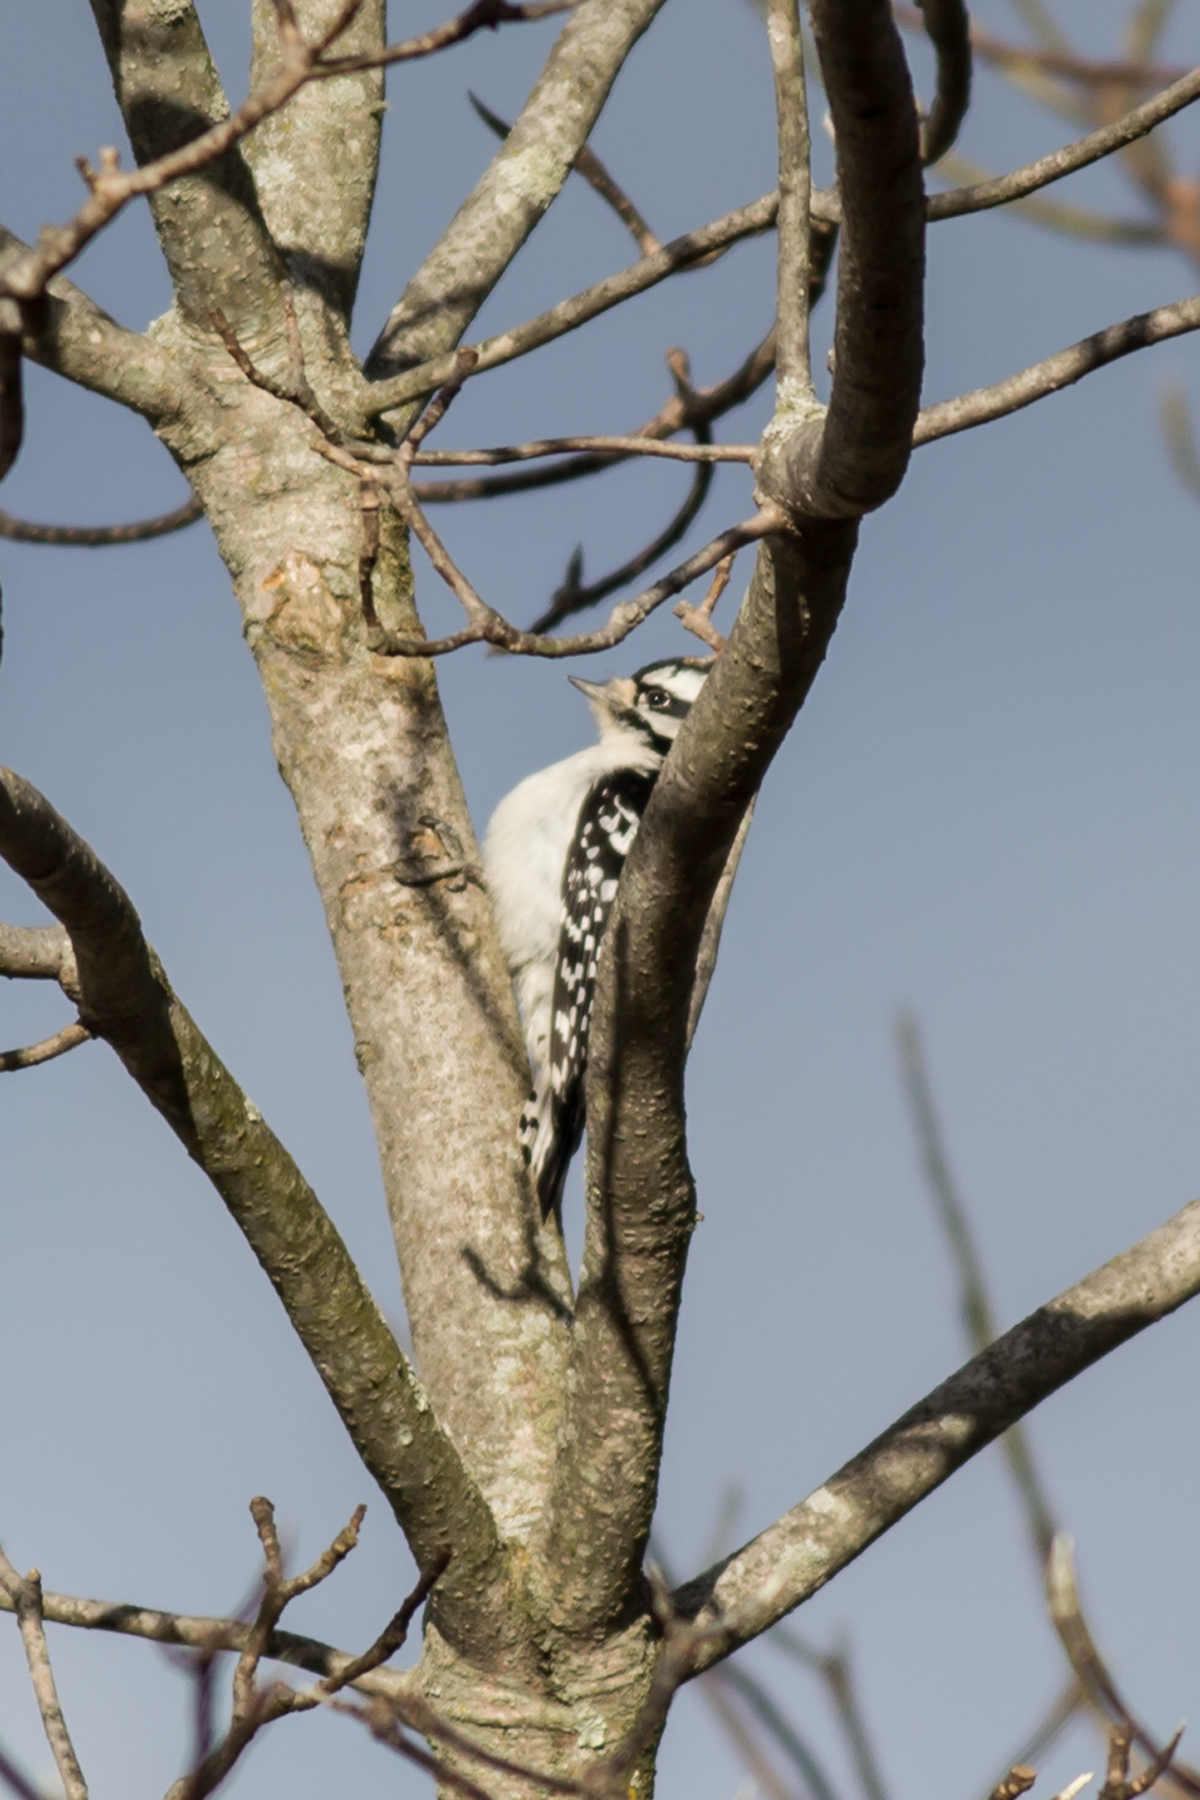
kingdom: Animalia
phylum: Chordata
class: Aves
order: Piciformes
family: Picidae
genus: Dryobates
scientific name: Dryobates pubescens
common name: Downy woodpecker
